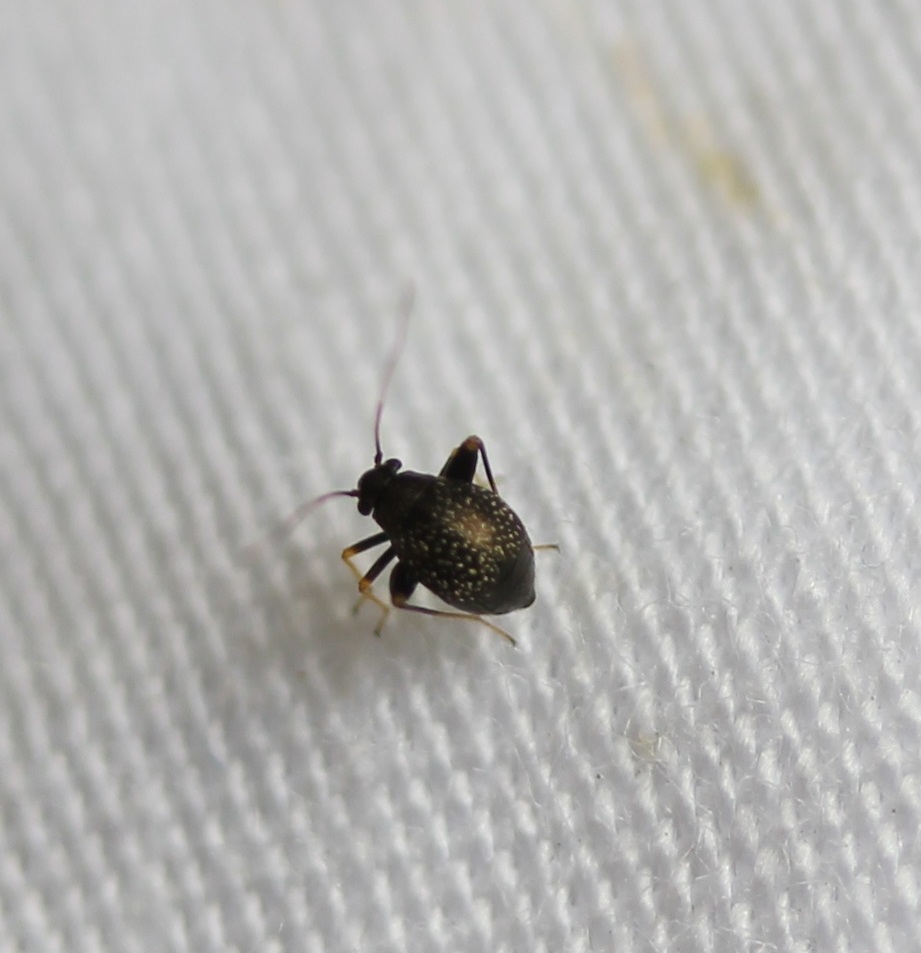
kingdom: Animalia
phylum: Arthropoda
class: Insecta
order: Hemiptera
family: Miridae
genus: Microtechnites
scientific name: Microtechnites bractatus
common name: Garden fleahopper
